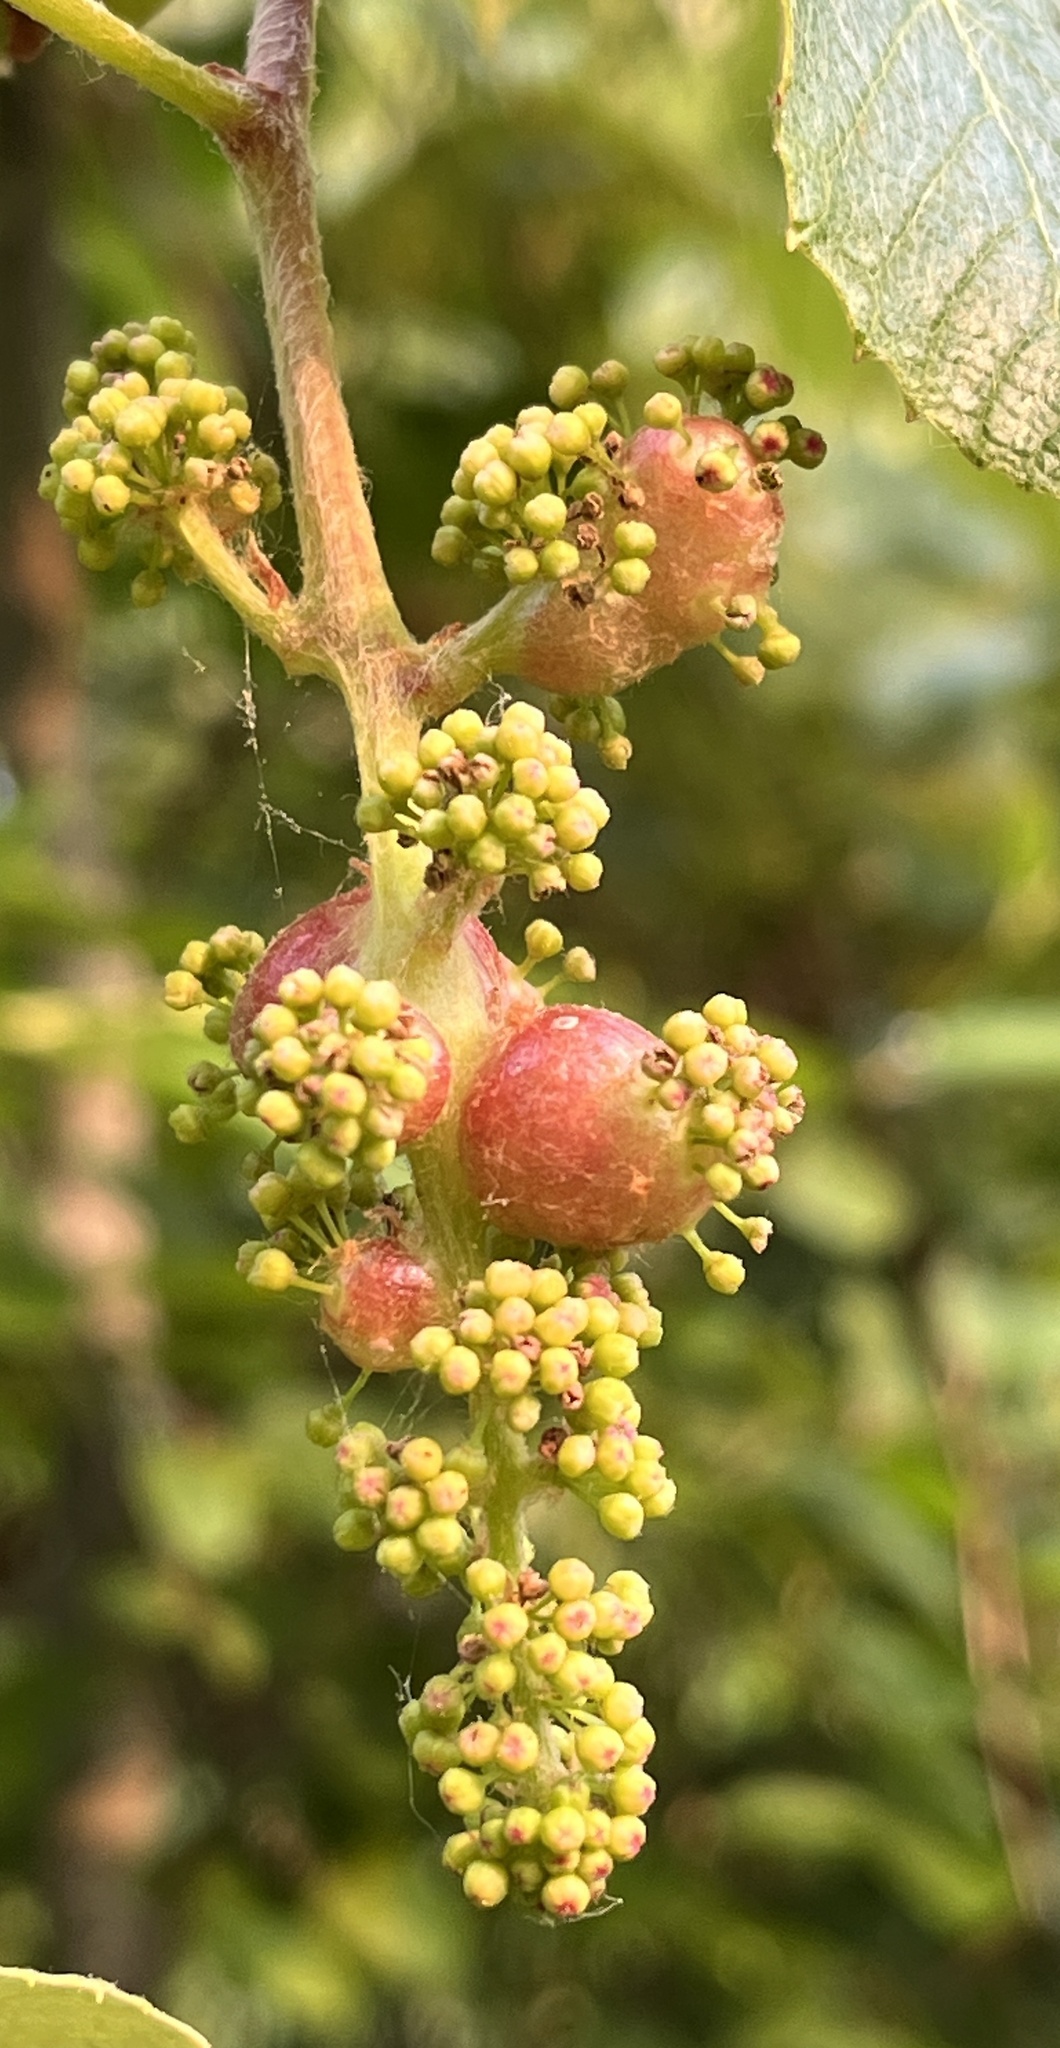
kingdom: Animalia
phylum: Arthropoda
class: Insecta
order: Diptera
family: Cecidomyiidae
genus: Vitisiella
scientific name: Vitisiella brevicauda
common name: Grape tumid gallmaker midge
